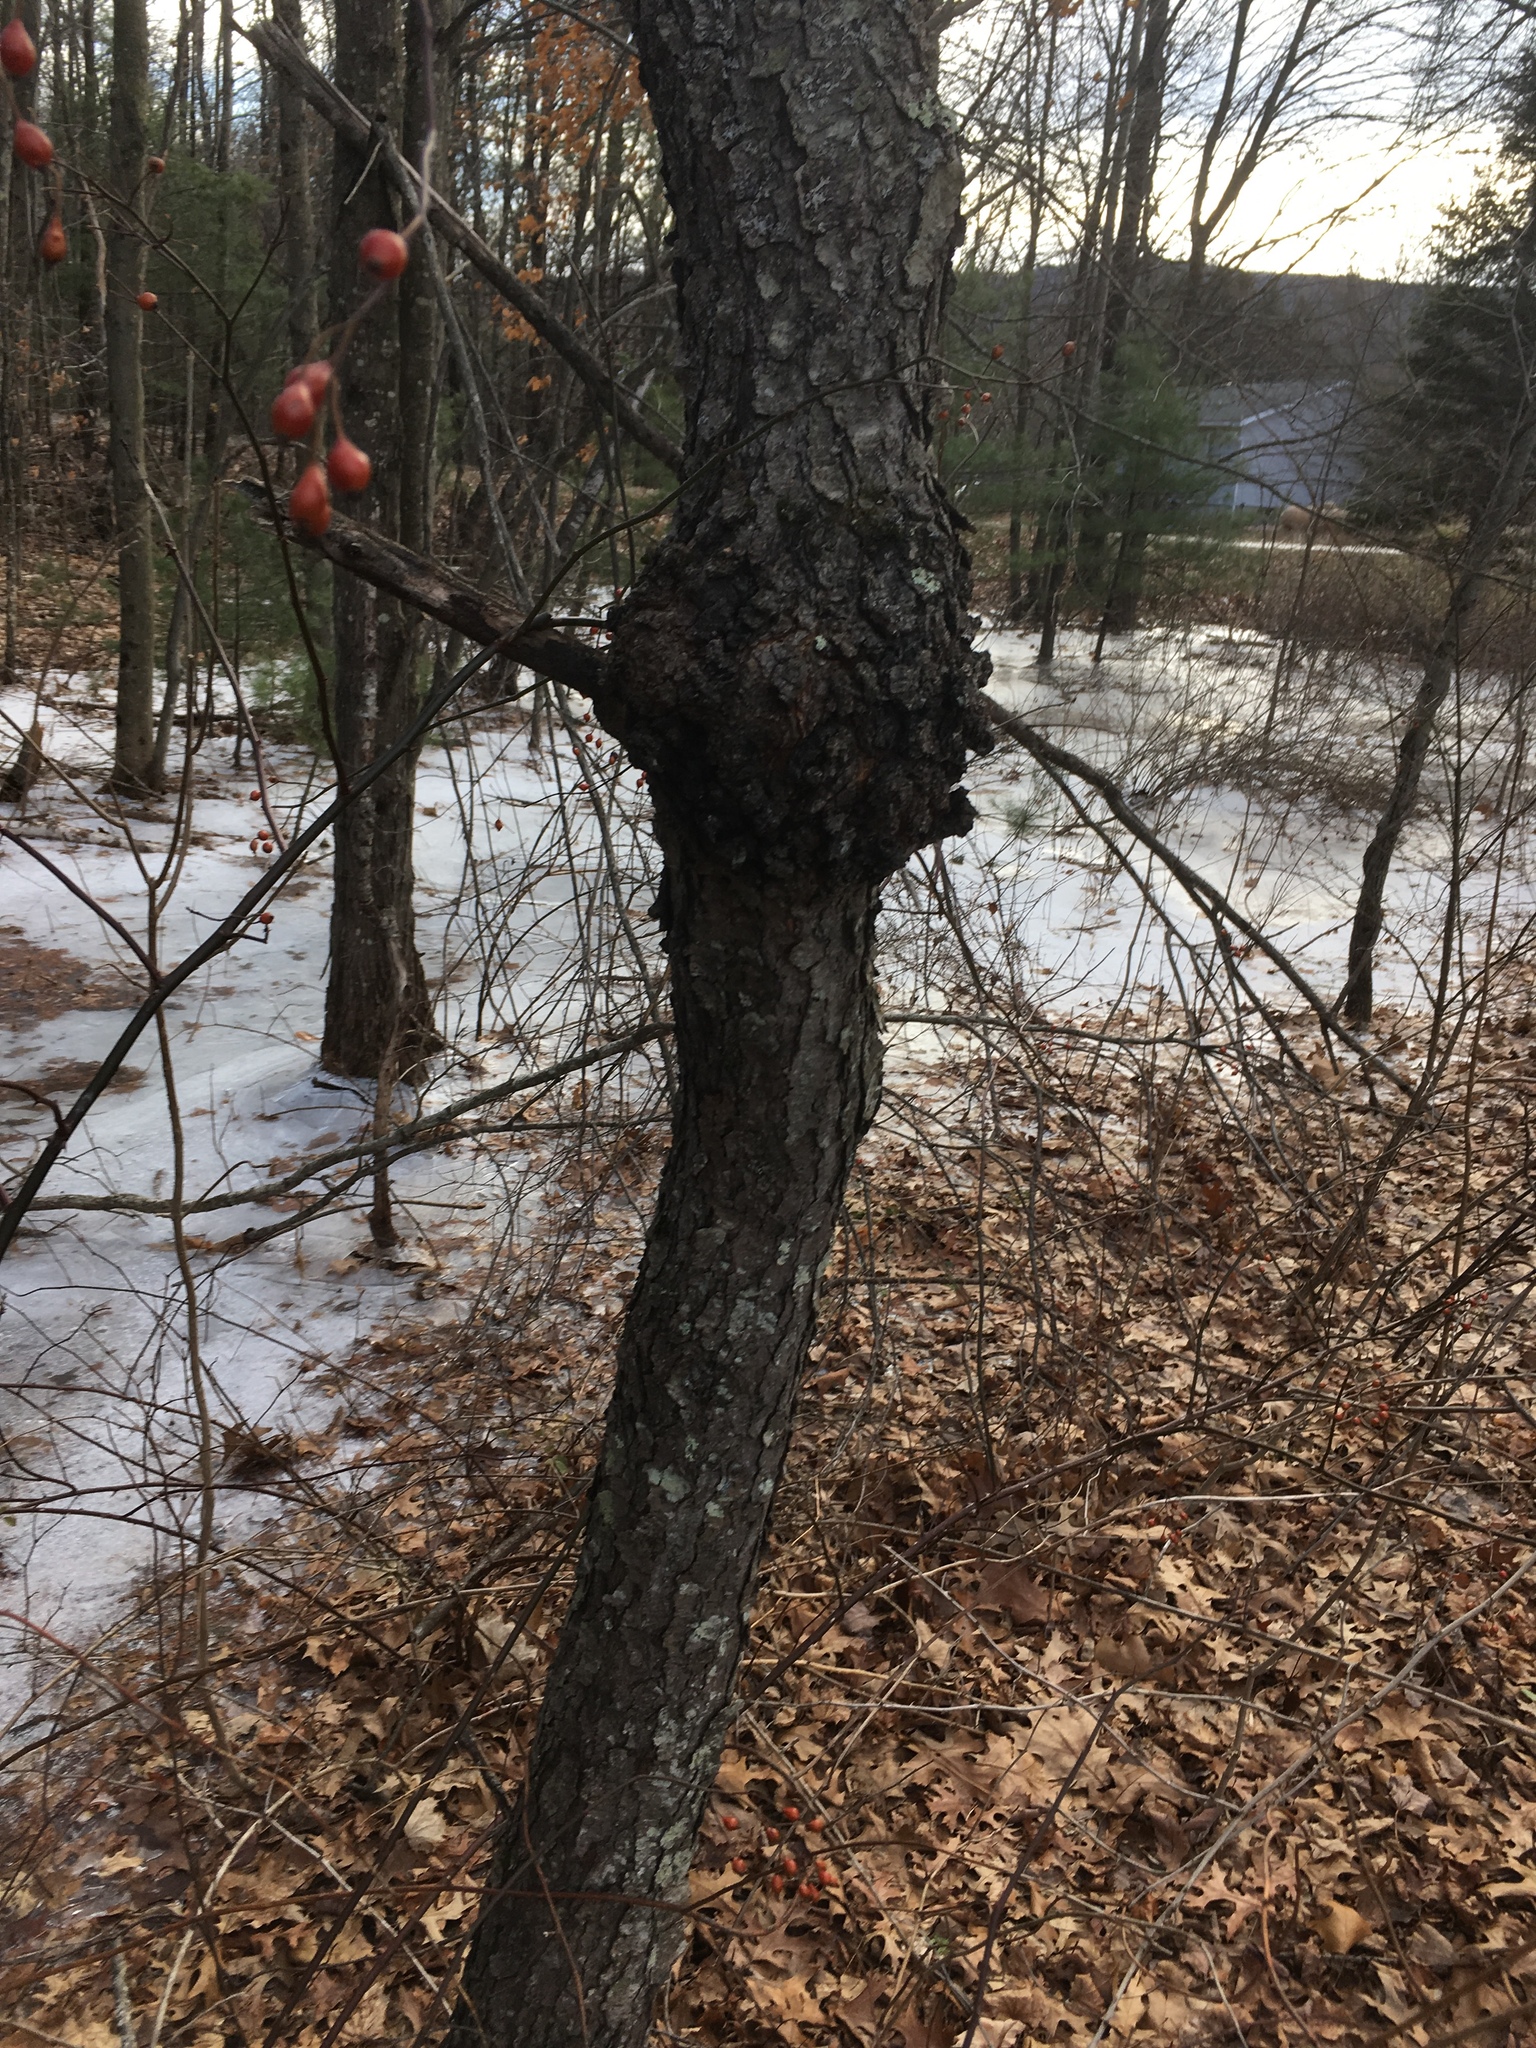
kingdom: Plantae
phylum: Tracheophyta
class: Magnoliopsida
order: Rosales
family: Rosaceae
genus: Prunus
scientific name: Prunus serotina
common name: Black cherry
